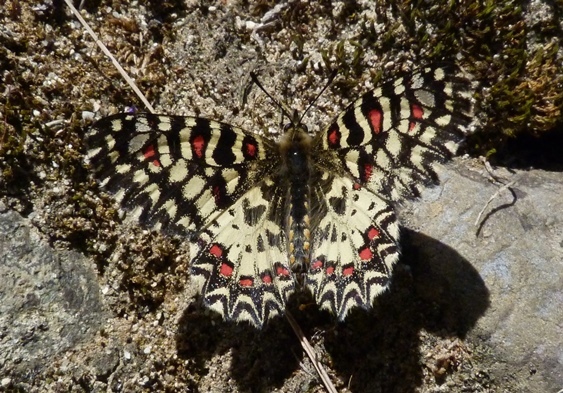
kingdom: Animalia
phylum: Arthropoda
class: Insecta
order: Lepidoptera
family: Papilionidae
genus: Zerynthia
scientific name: Zerynthia rumina
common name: Spanish festoon
